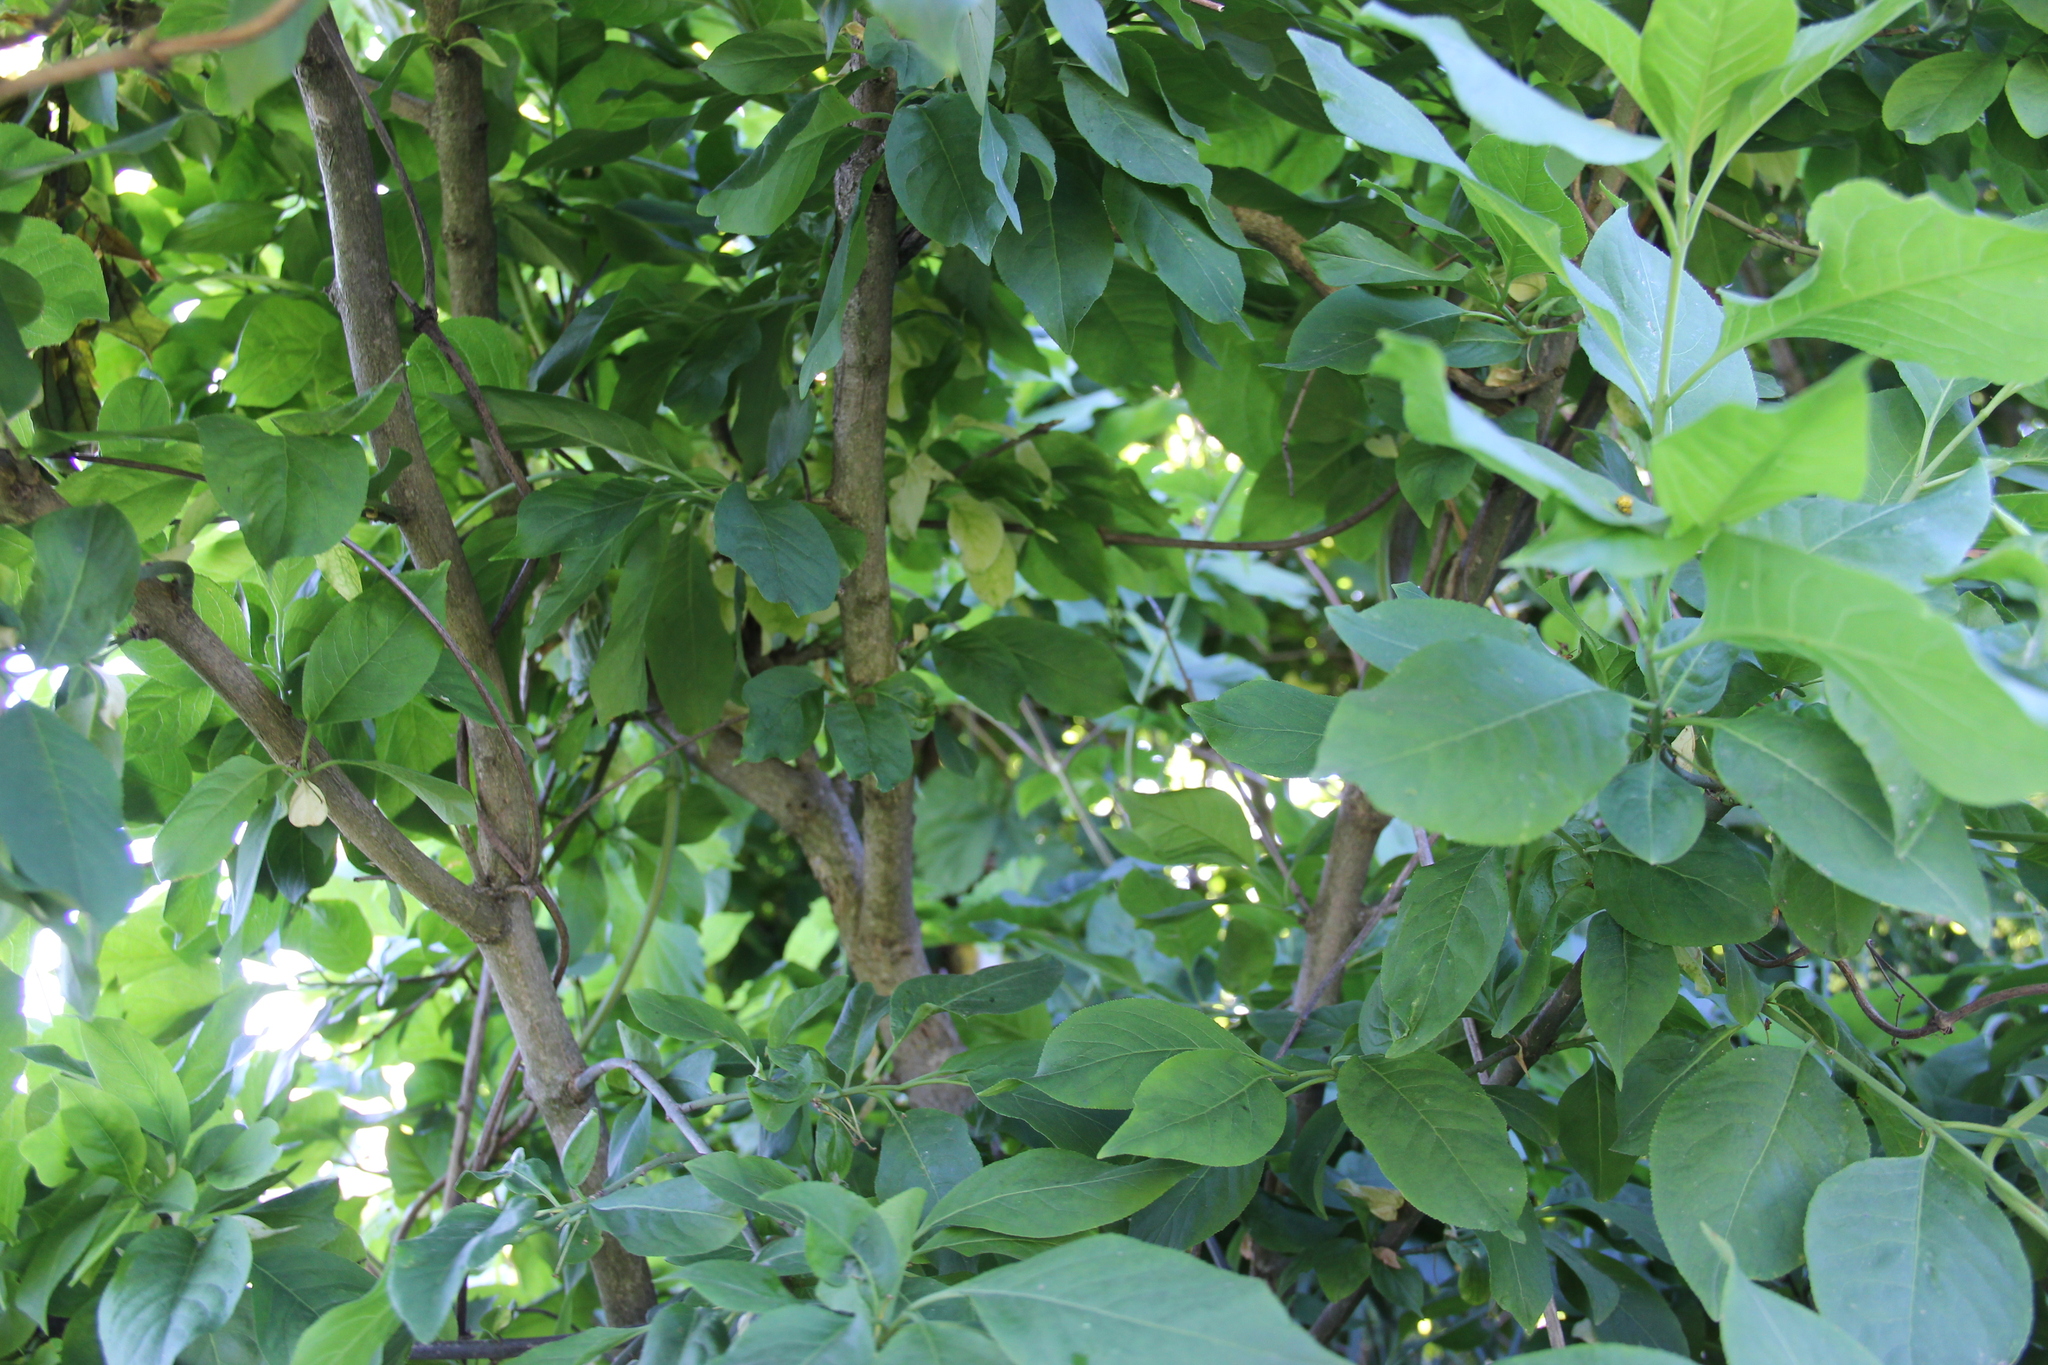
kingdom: Plantae
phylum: Tracheophyta
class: Magnoliopsida
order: Celastrales
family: Celastraceae
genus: Euonymus
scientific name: Euonymus europaeus
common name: Spindle
